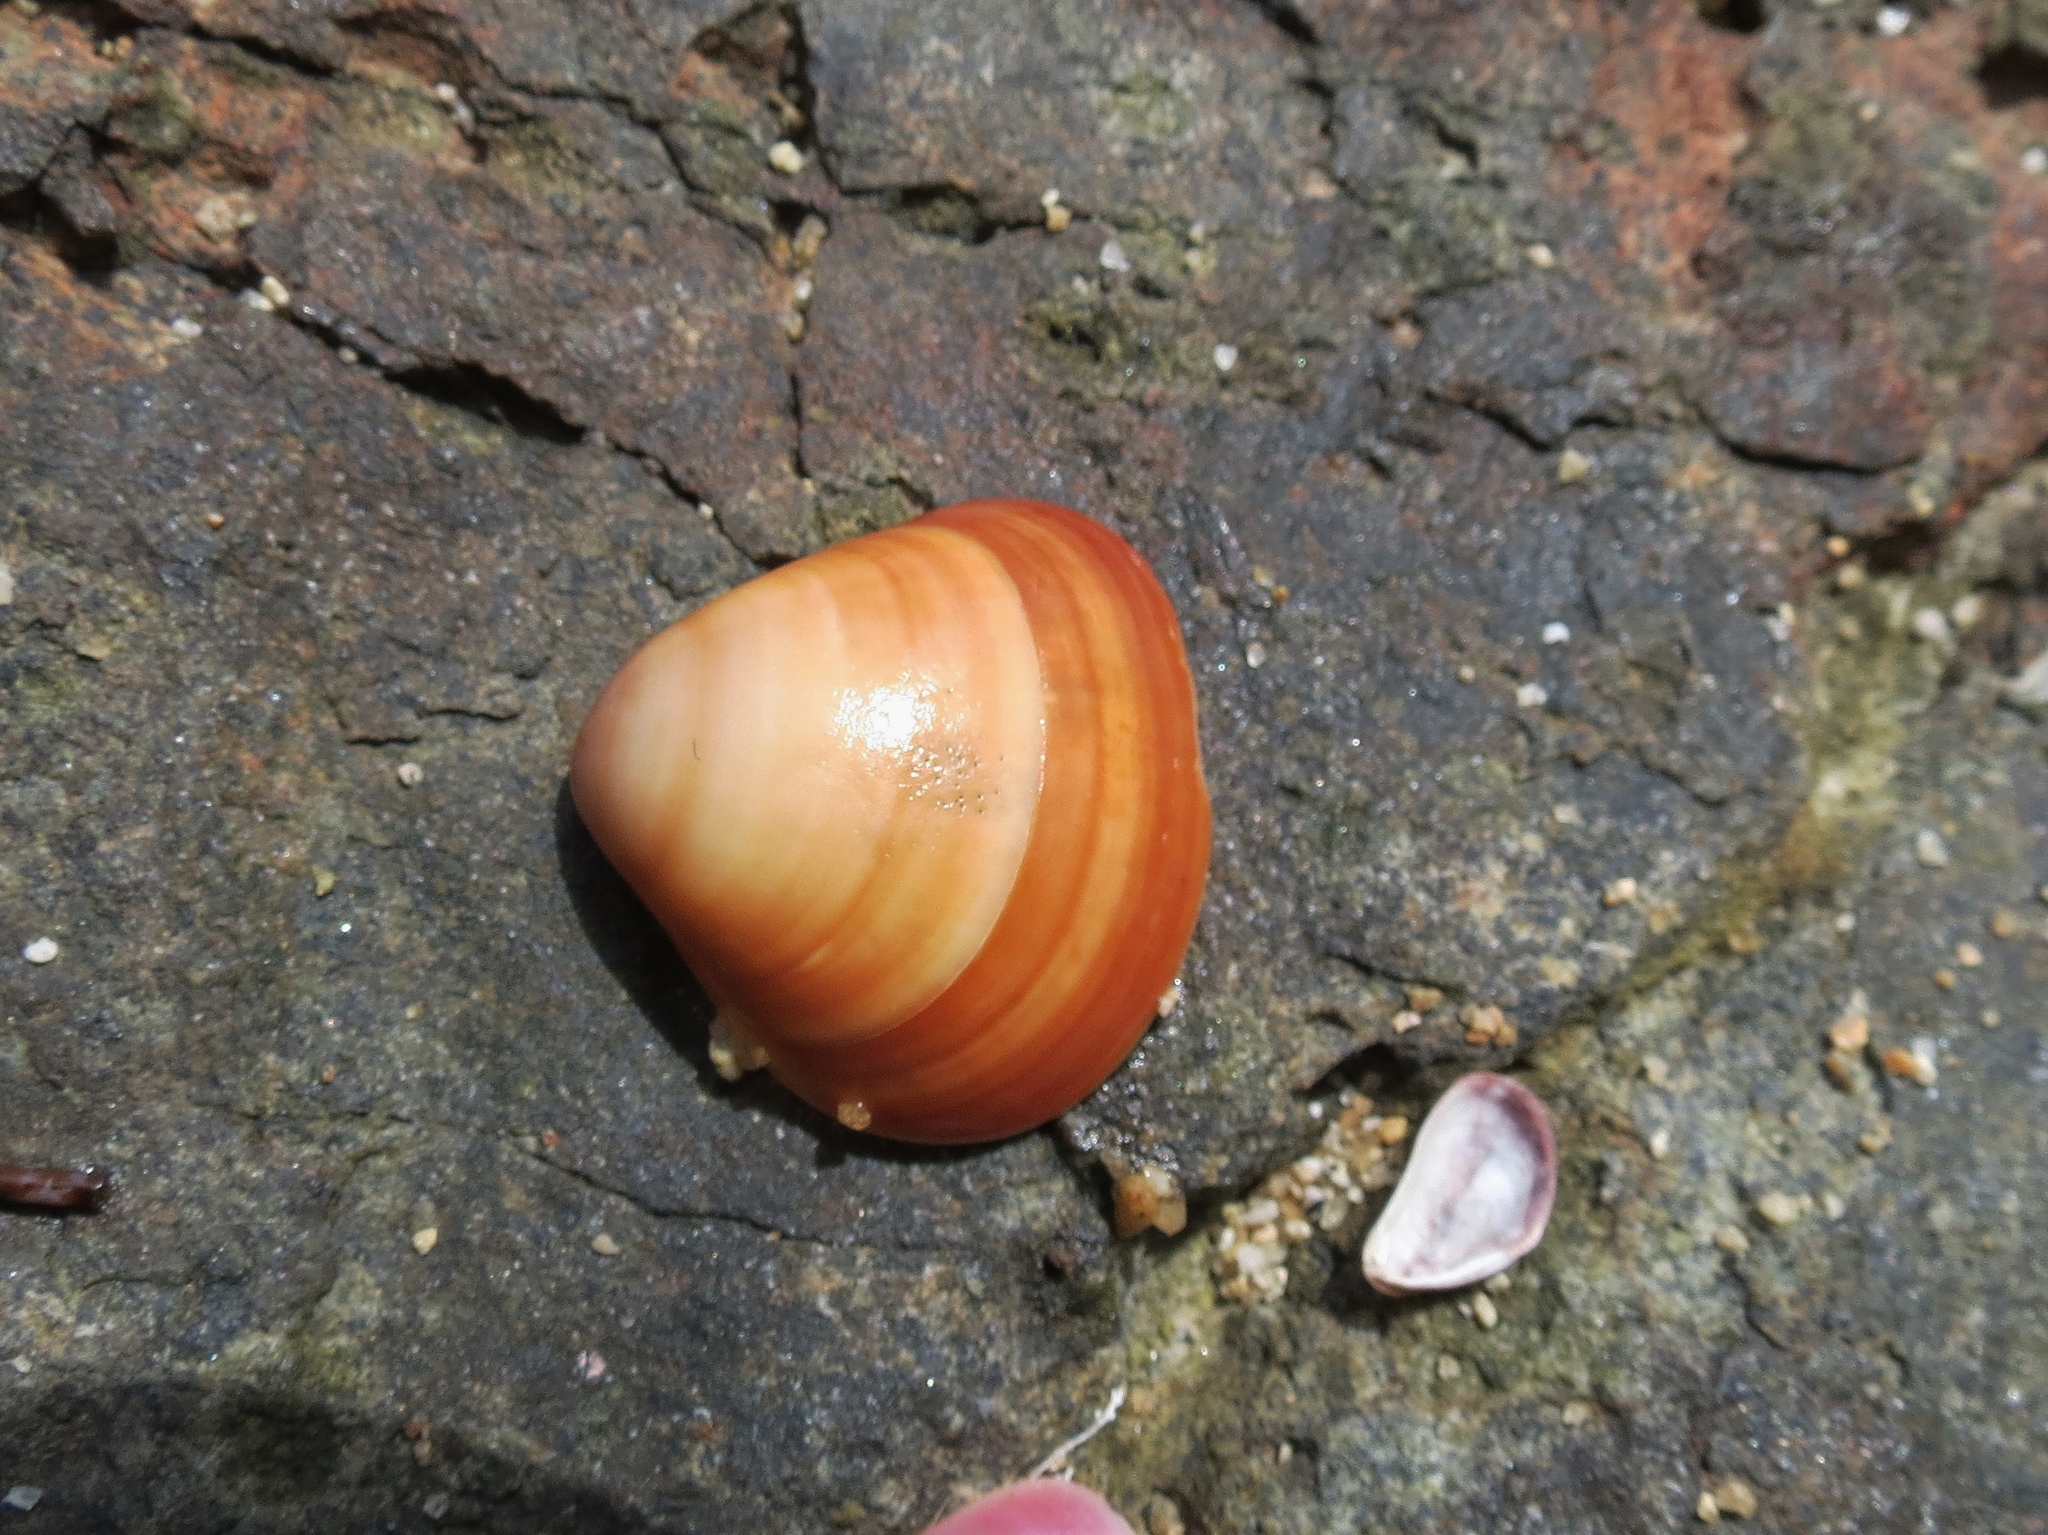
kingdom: Animalia
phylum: Mollusca
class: Bivalvia
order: Venerida
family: Veneridae
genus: Tivela
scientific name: Tivela mactroides
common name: Trigonal tivela
